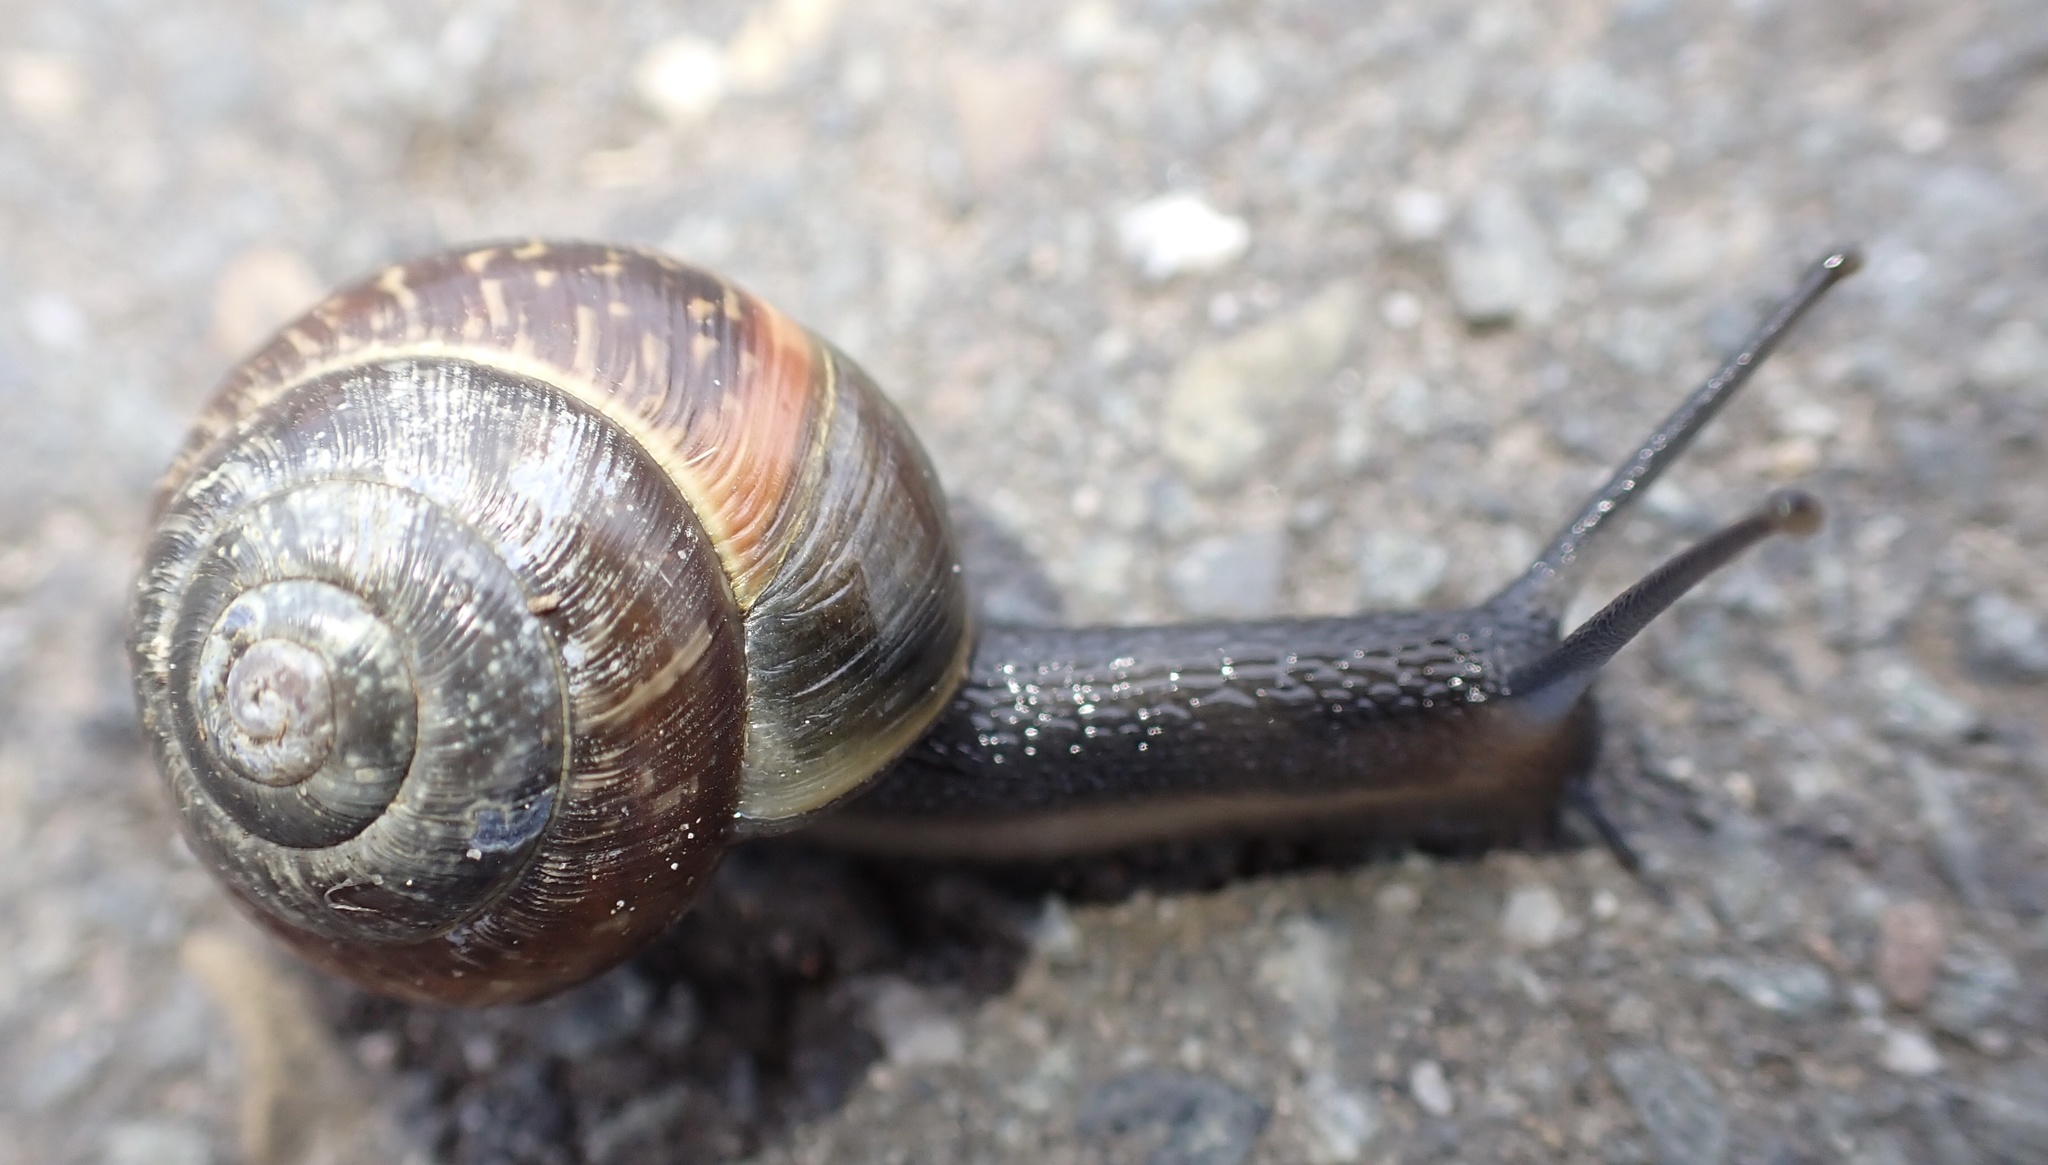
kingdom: Animalia
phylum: Mollusca
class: Gastropoda
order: Stylommatophora
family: Helicidae
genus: Arianta
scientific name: Arianta arbustorum
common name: Copse snail
